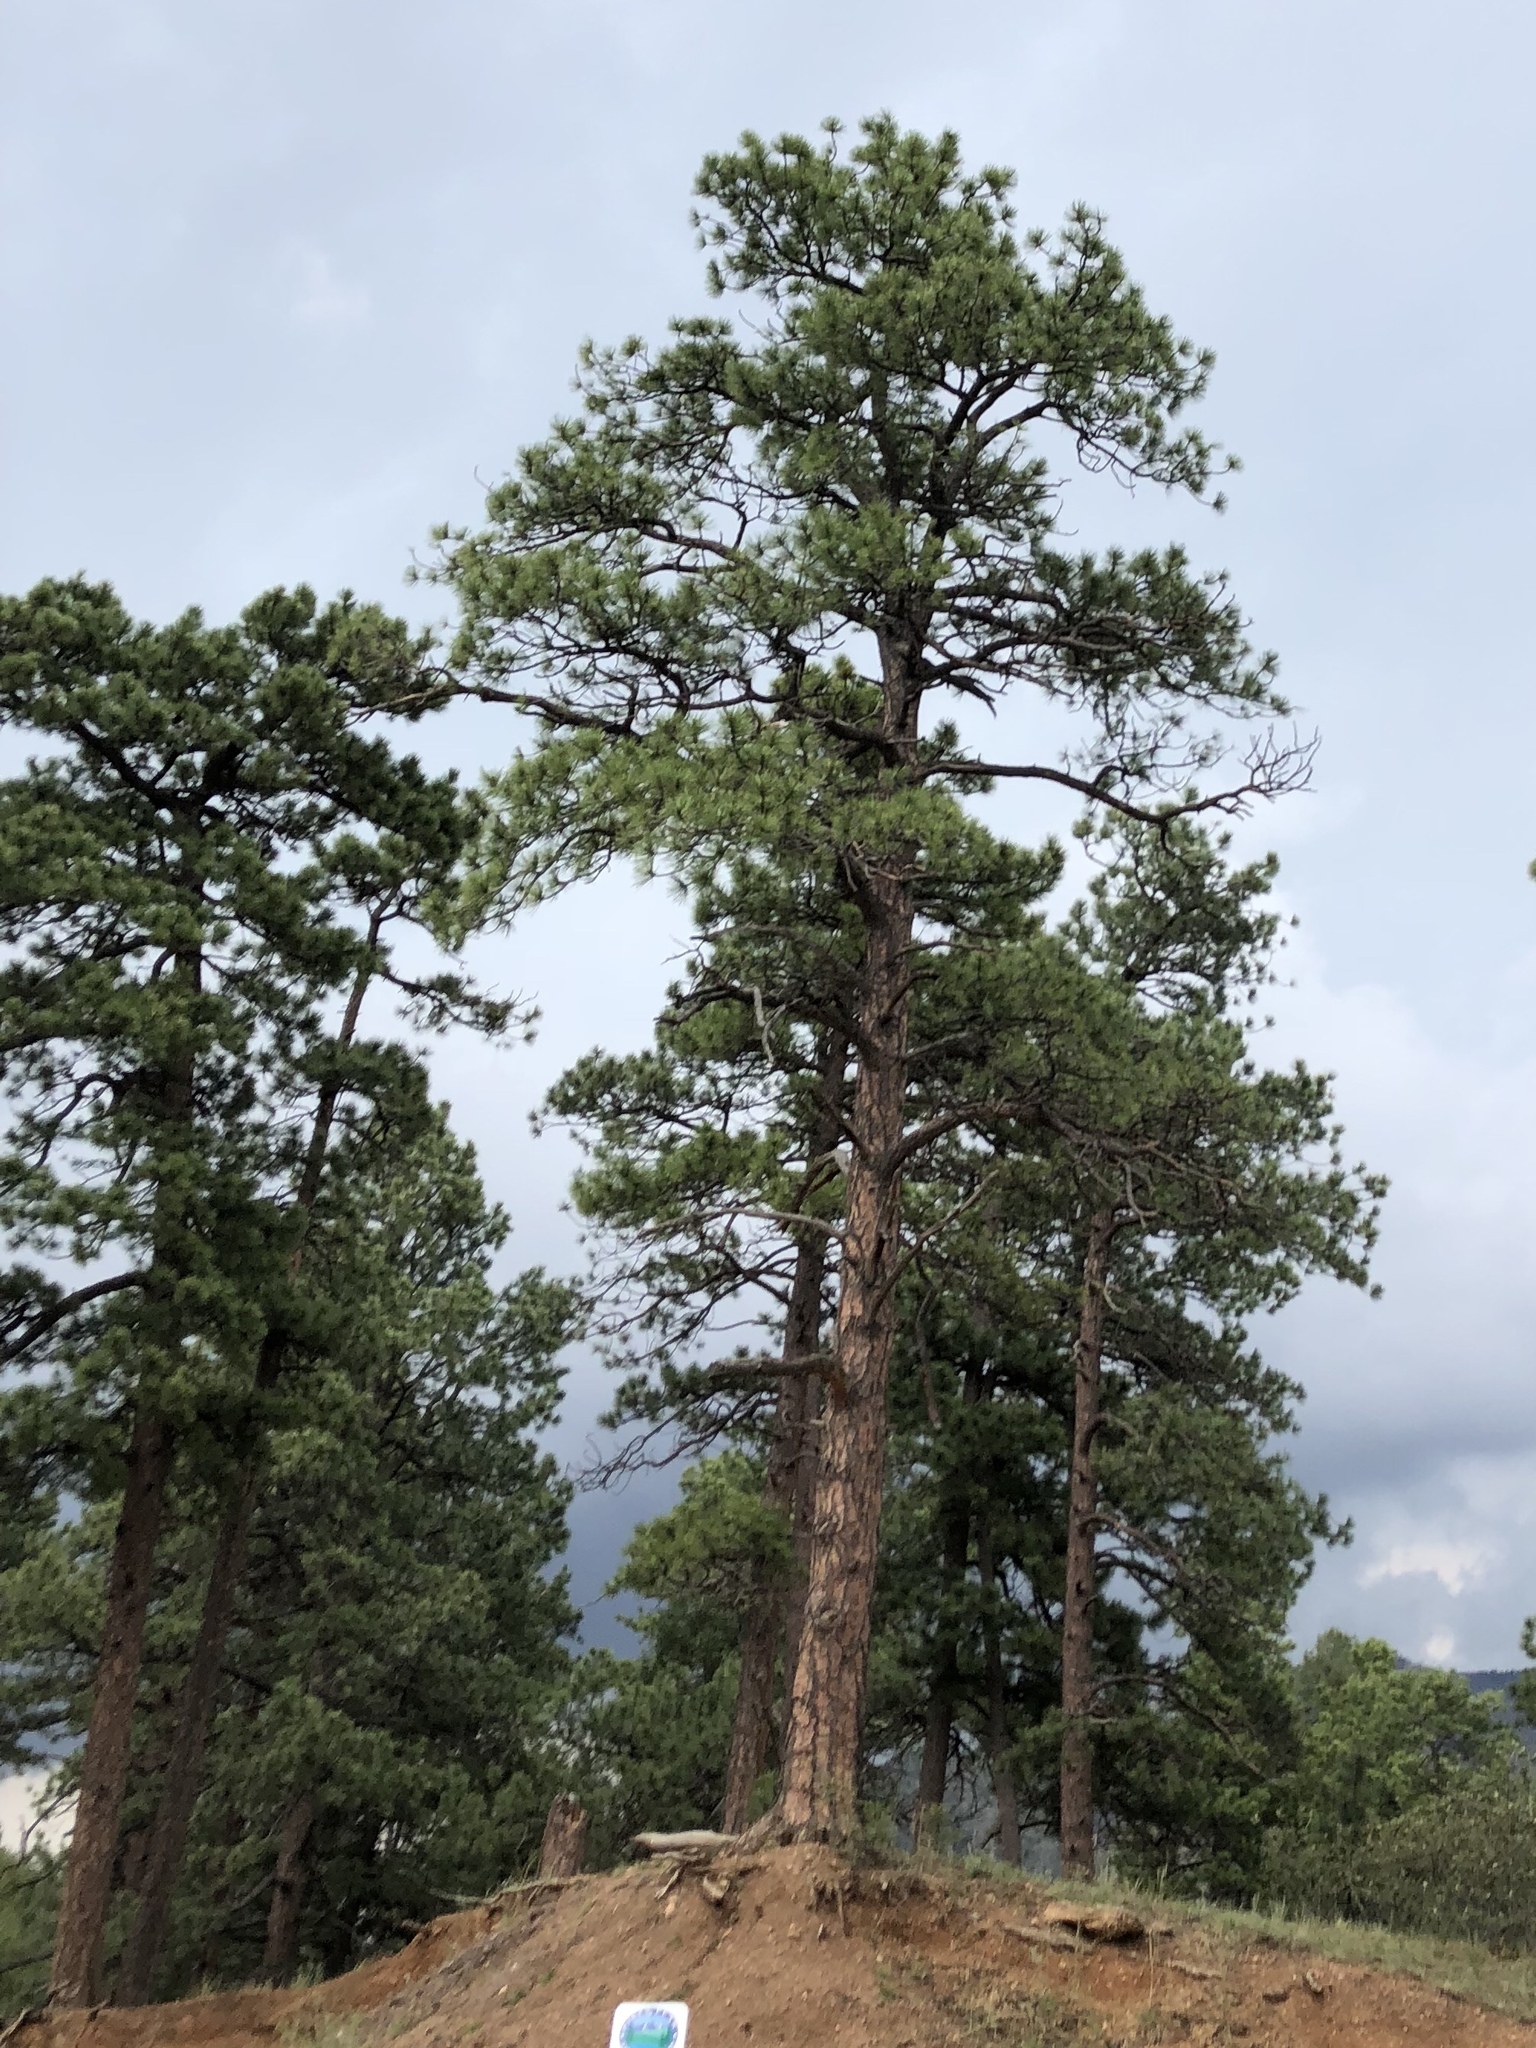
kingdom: Plantae
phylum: Tracheophyta
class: Pinopsida
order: Pinales
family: Pinaceae
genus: Pinus
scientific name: Pinus ponderosa
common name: Western yellow-pine
